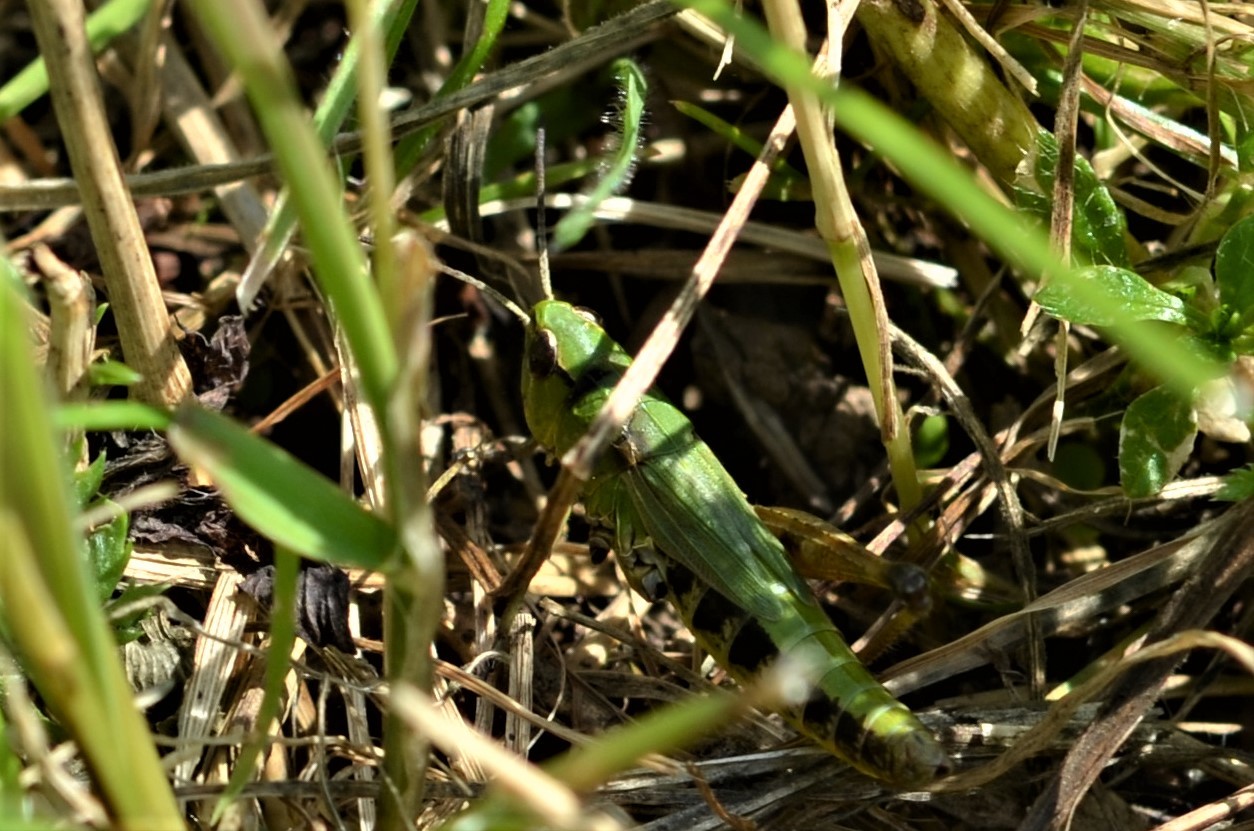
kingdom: Animalia
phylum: Arthropoda
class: Insecta
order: Orthoptera
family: Acrididae
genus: Pseudochorthippus
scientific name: Pseudochorthippus parallelus
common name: Meadow grasshopper
